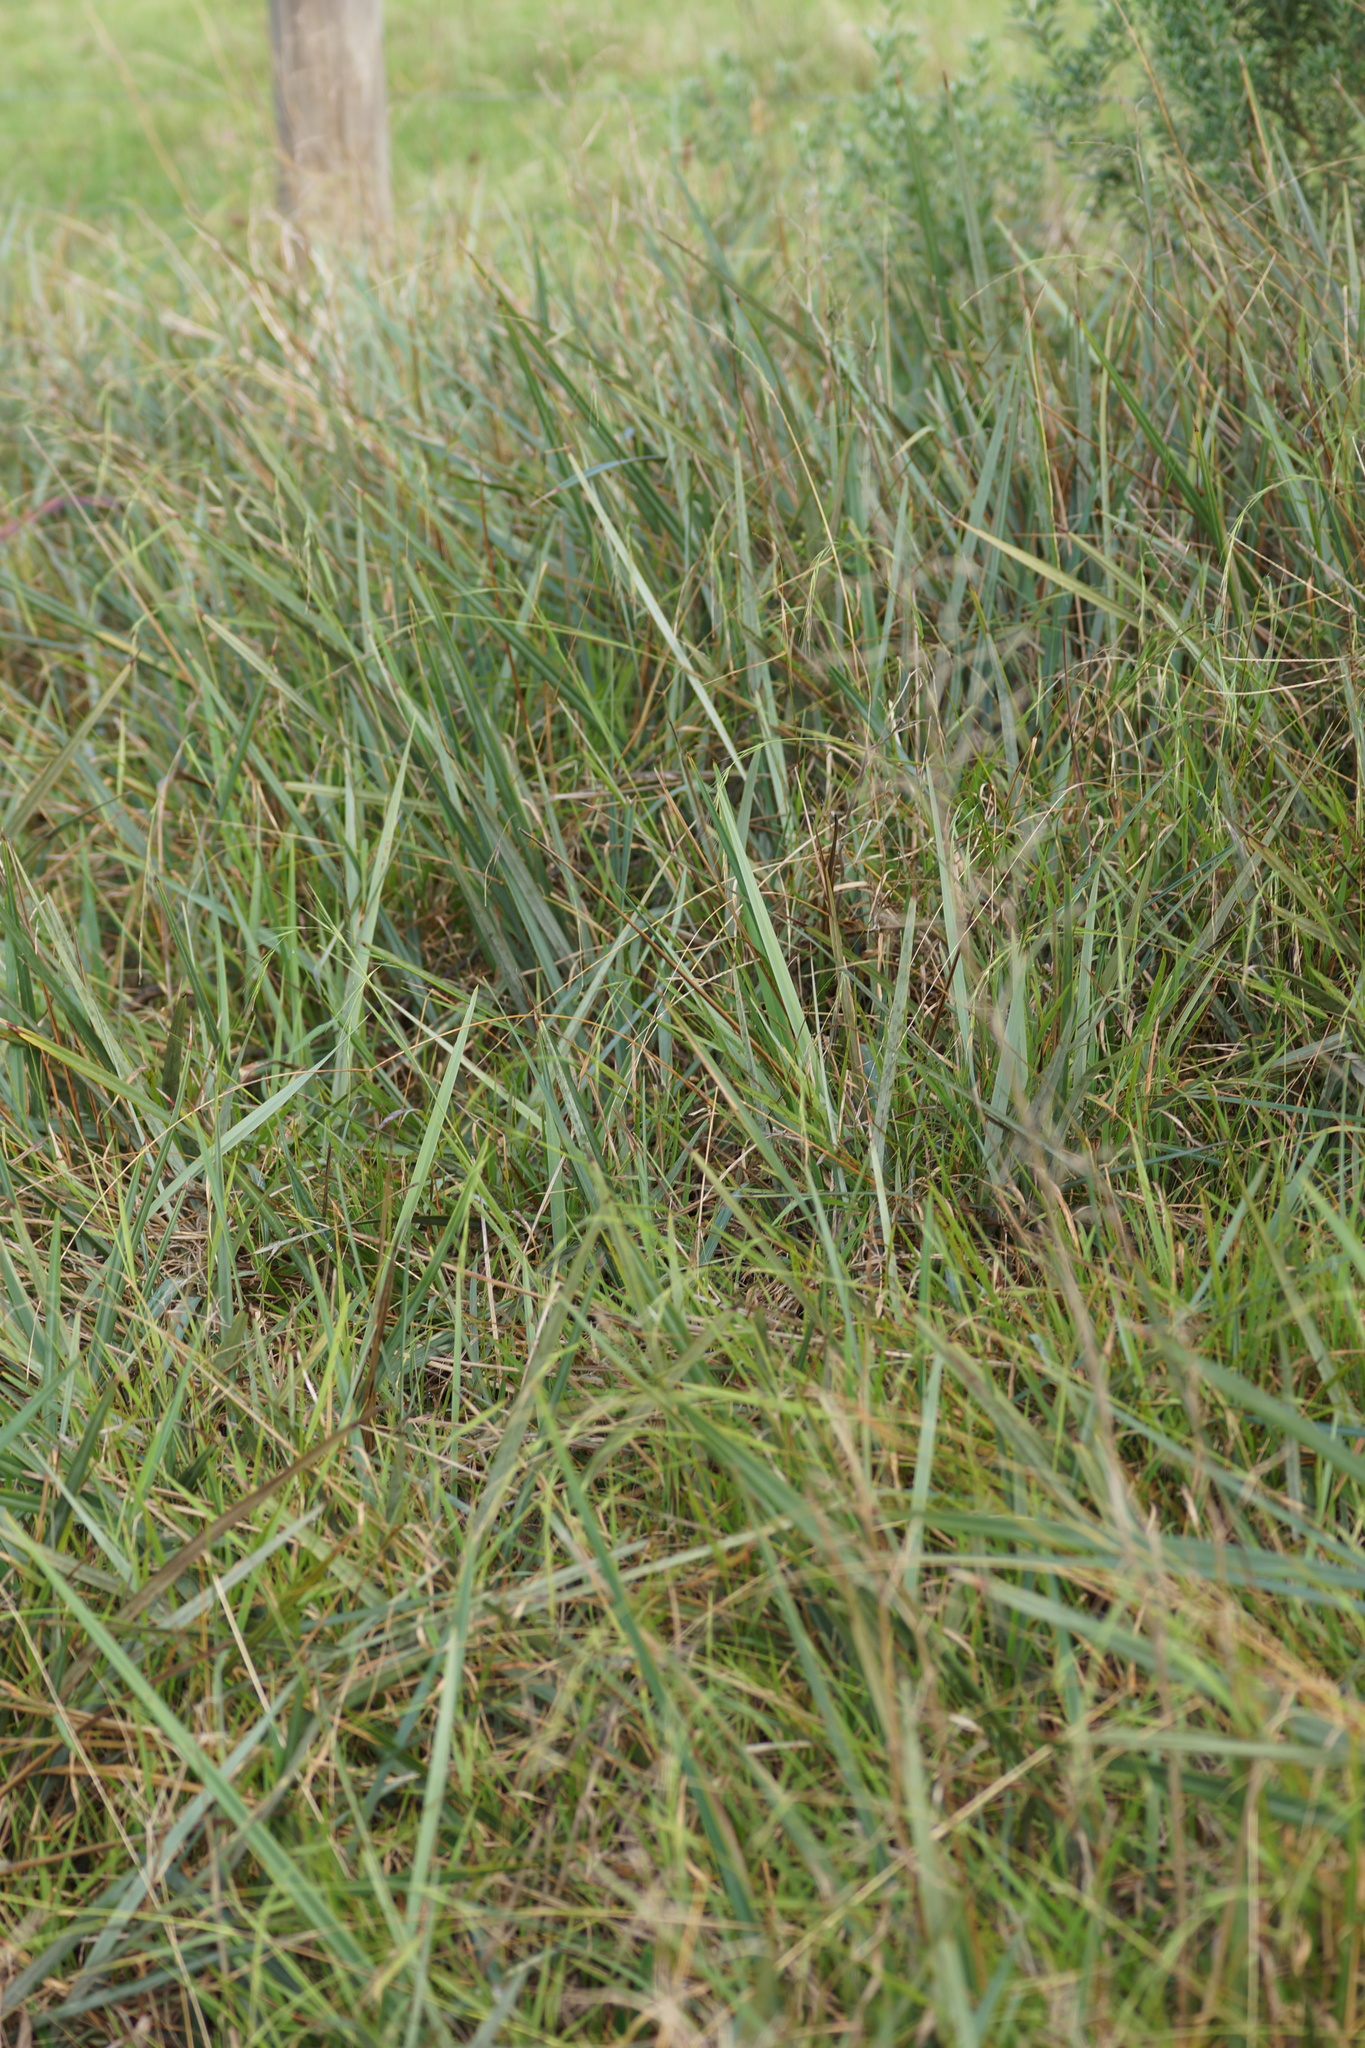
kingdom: Plantae
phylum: Tracheophyta
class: Liliopsida
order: Asparagales
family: Asphodelaceae
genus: Dianella
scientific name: Dianella revoluta
